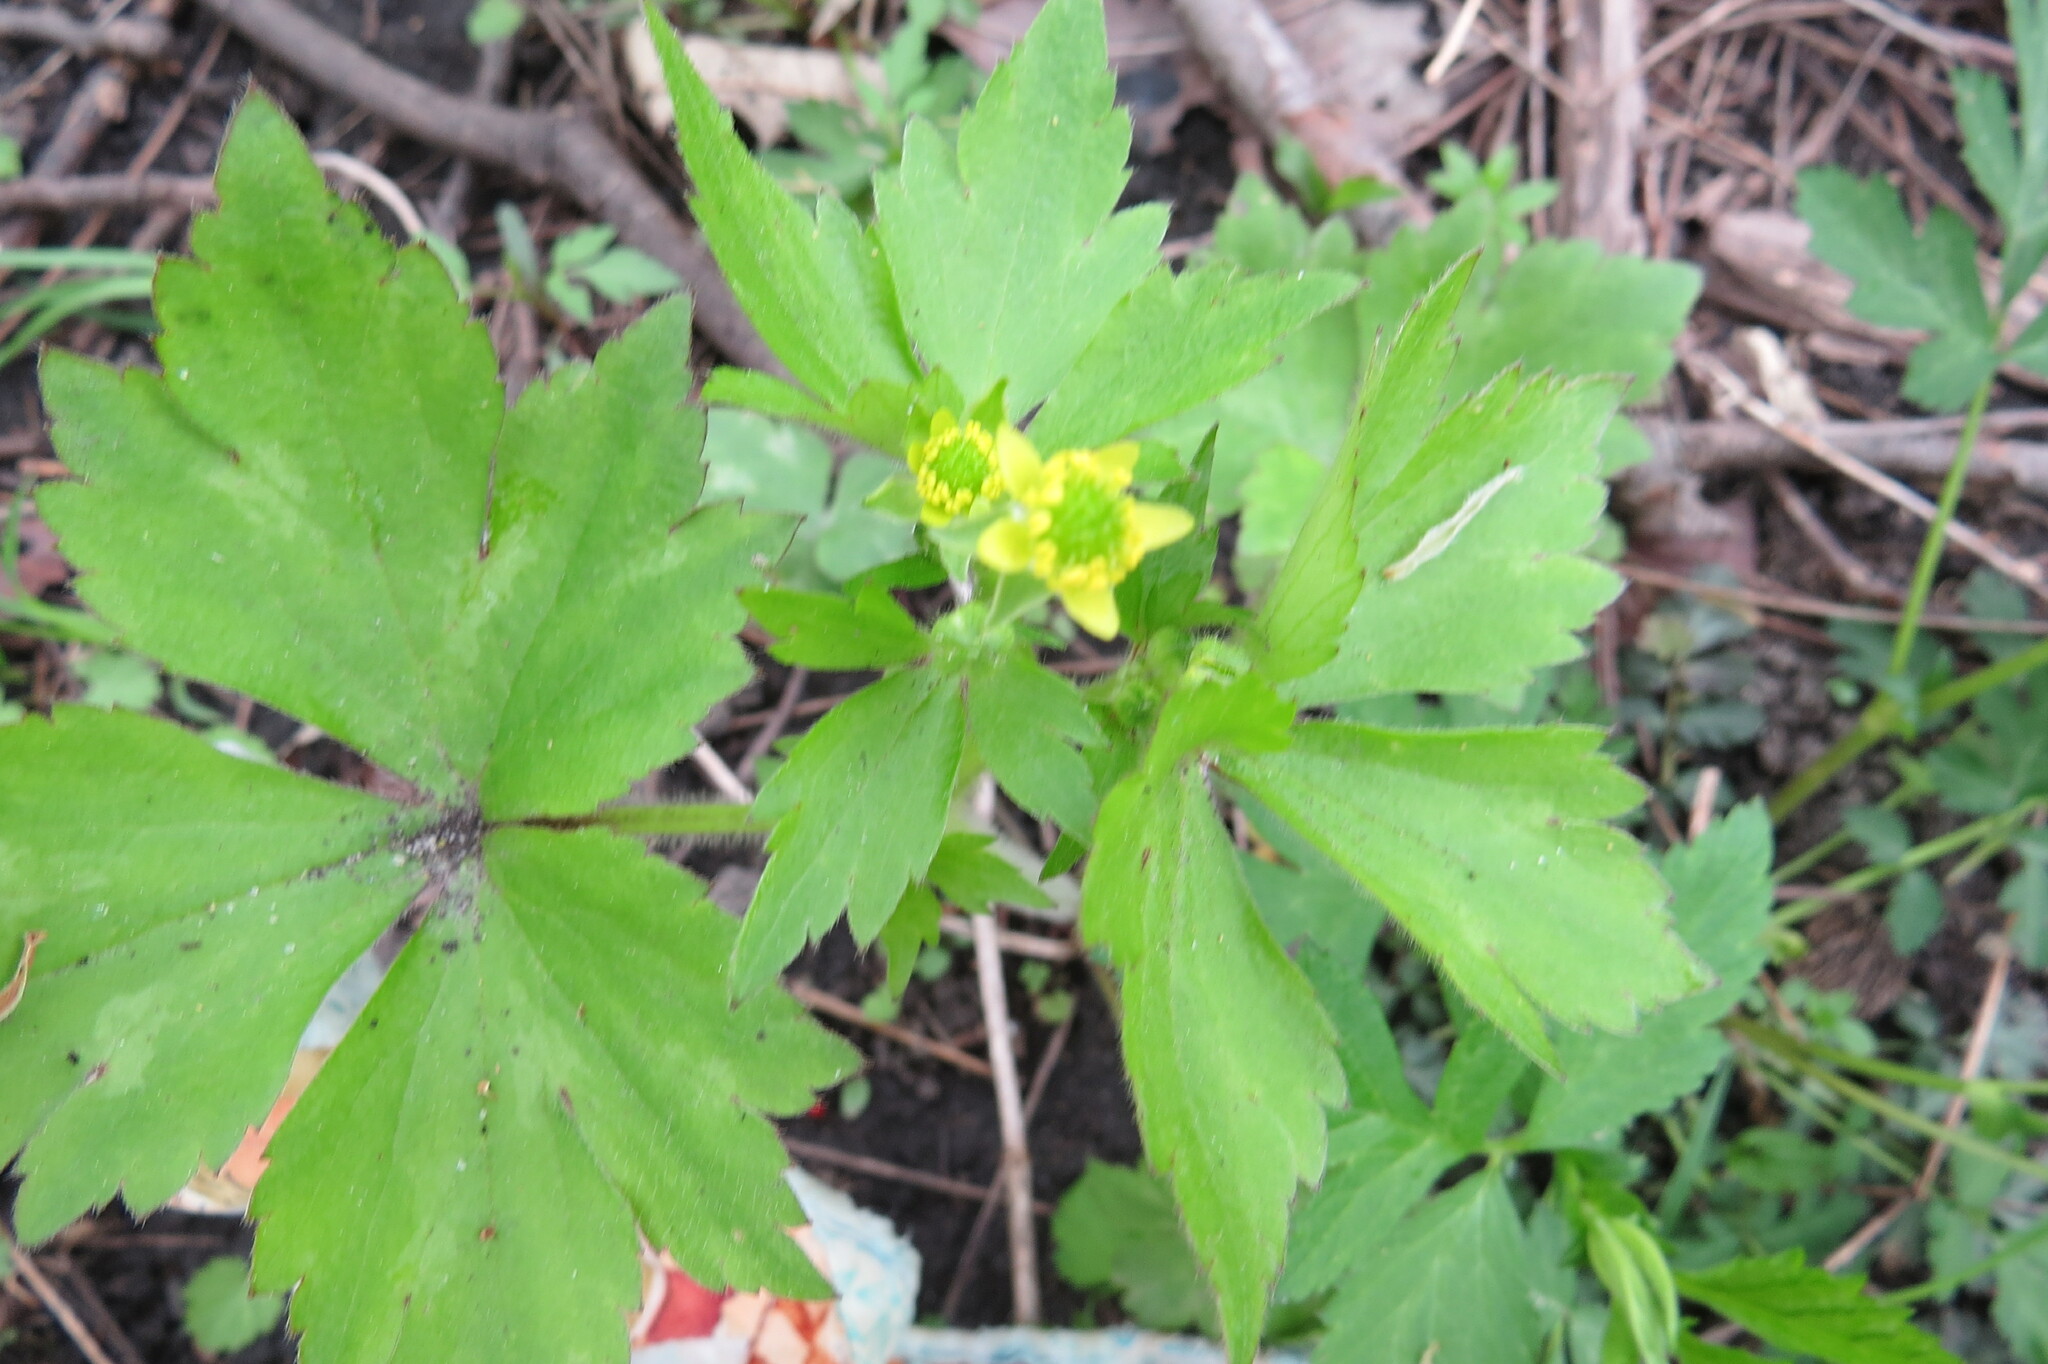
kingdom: Plantae
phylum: Tracheophyta
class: Magnoliopsida
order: Ranunculales
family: Ranunculaceae
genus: Ranunculus
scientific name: Ranunculus recurvatus
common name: Blisterwort
